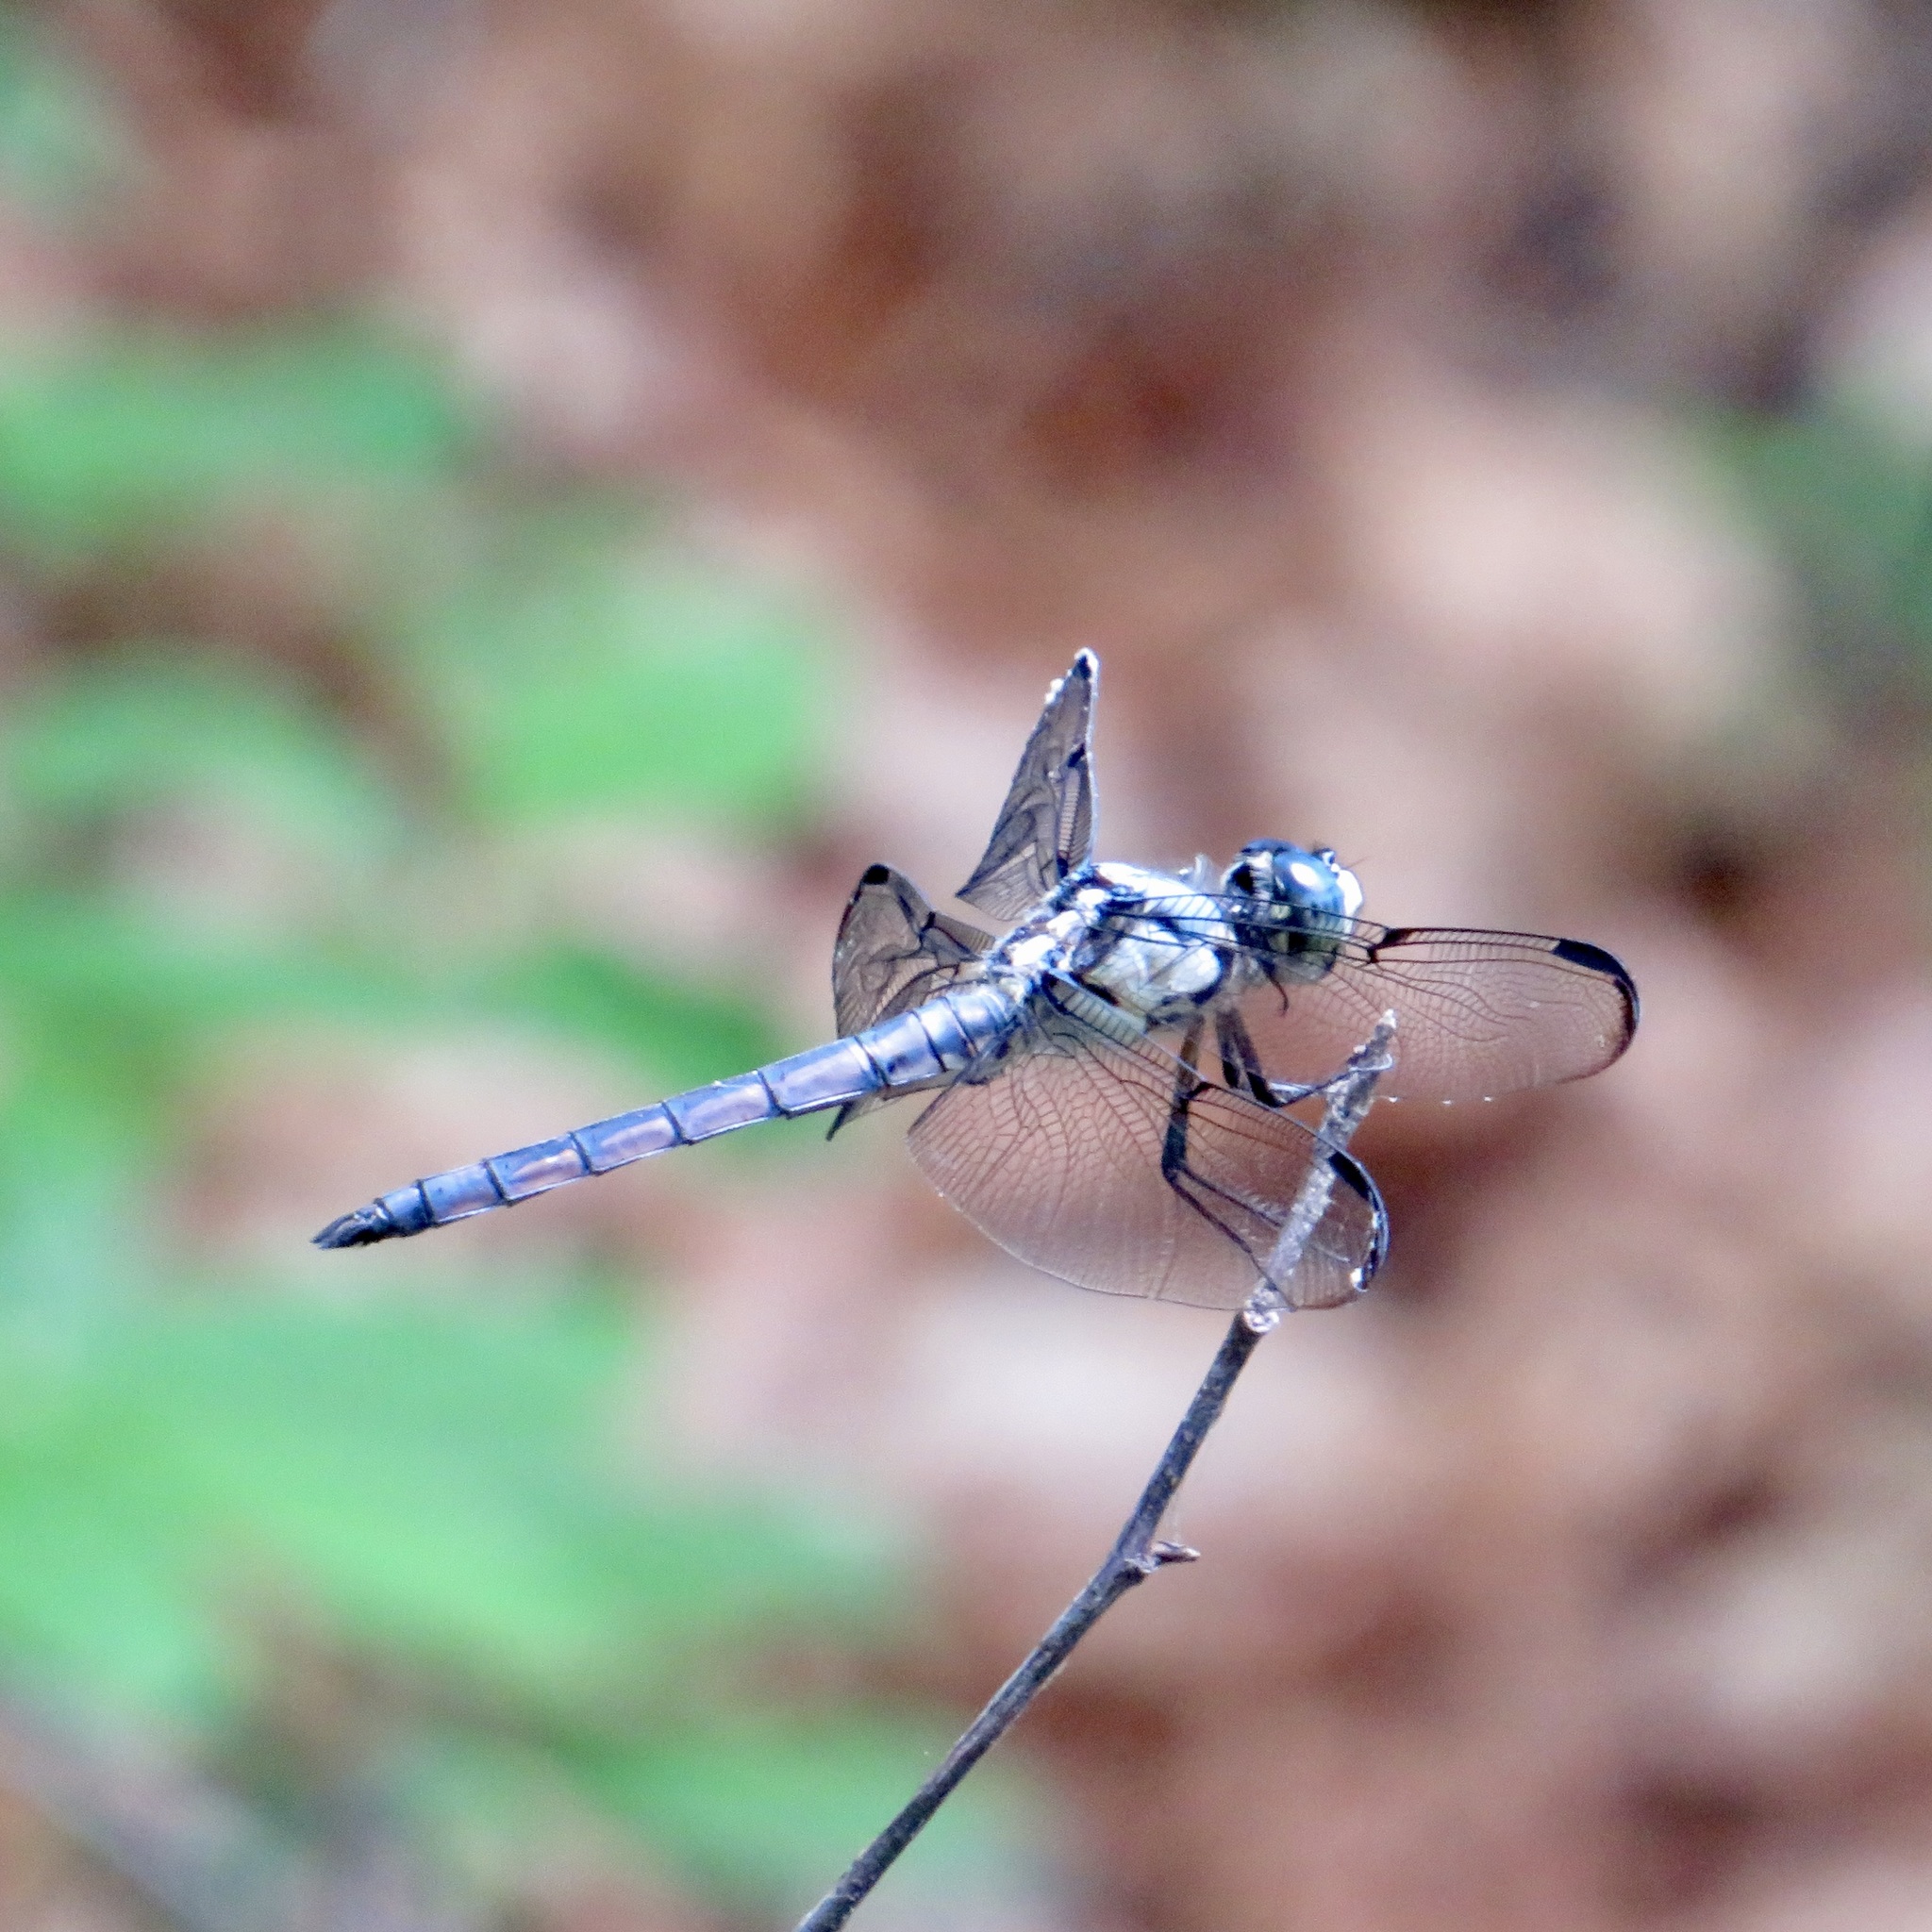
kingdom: Animalia
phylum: Arthropoda
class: Insecta
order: Odonata
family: Libellulidae
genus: Libellula
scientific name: Libellula vibrans
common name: Great blue skimmer
